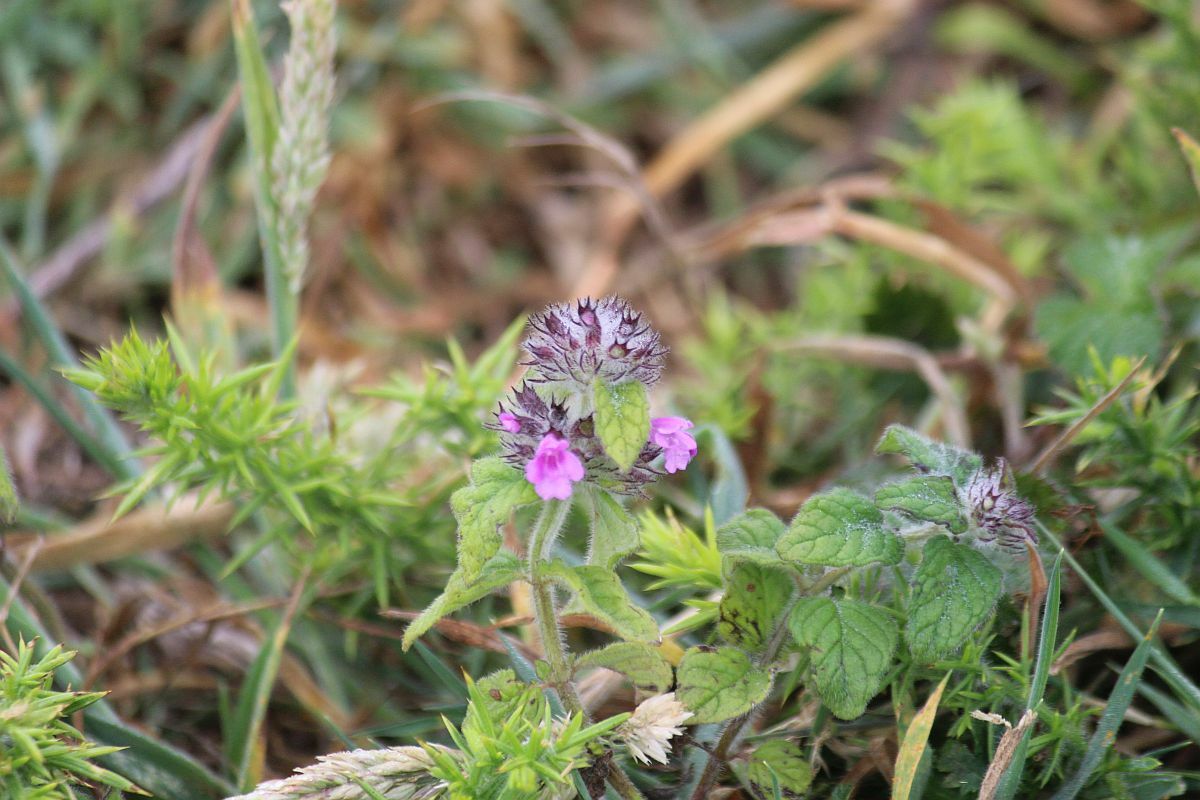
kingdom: Plantae
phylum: Tracheophyta
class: Magnoliopsida
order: Lamiales
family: Lamiaceae
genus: Clinopodium
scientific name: Clinopodium vulgare
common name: Wild basil
